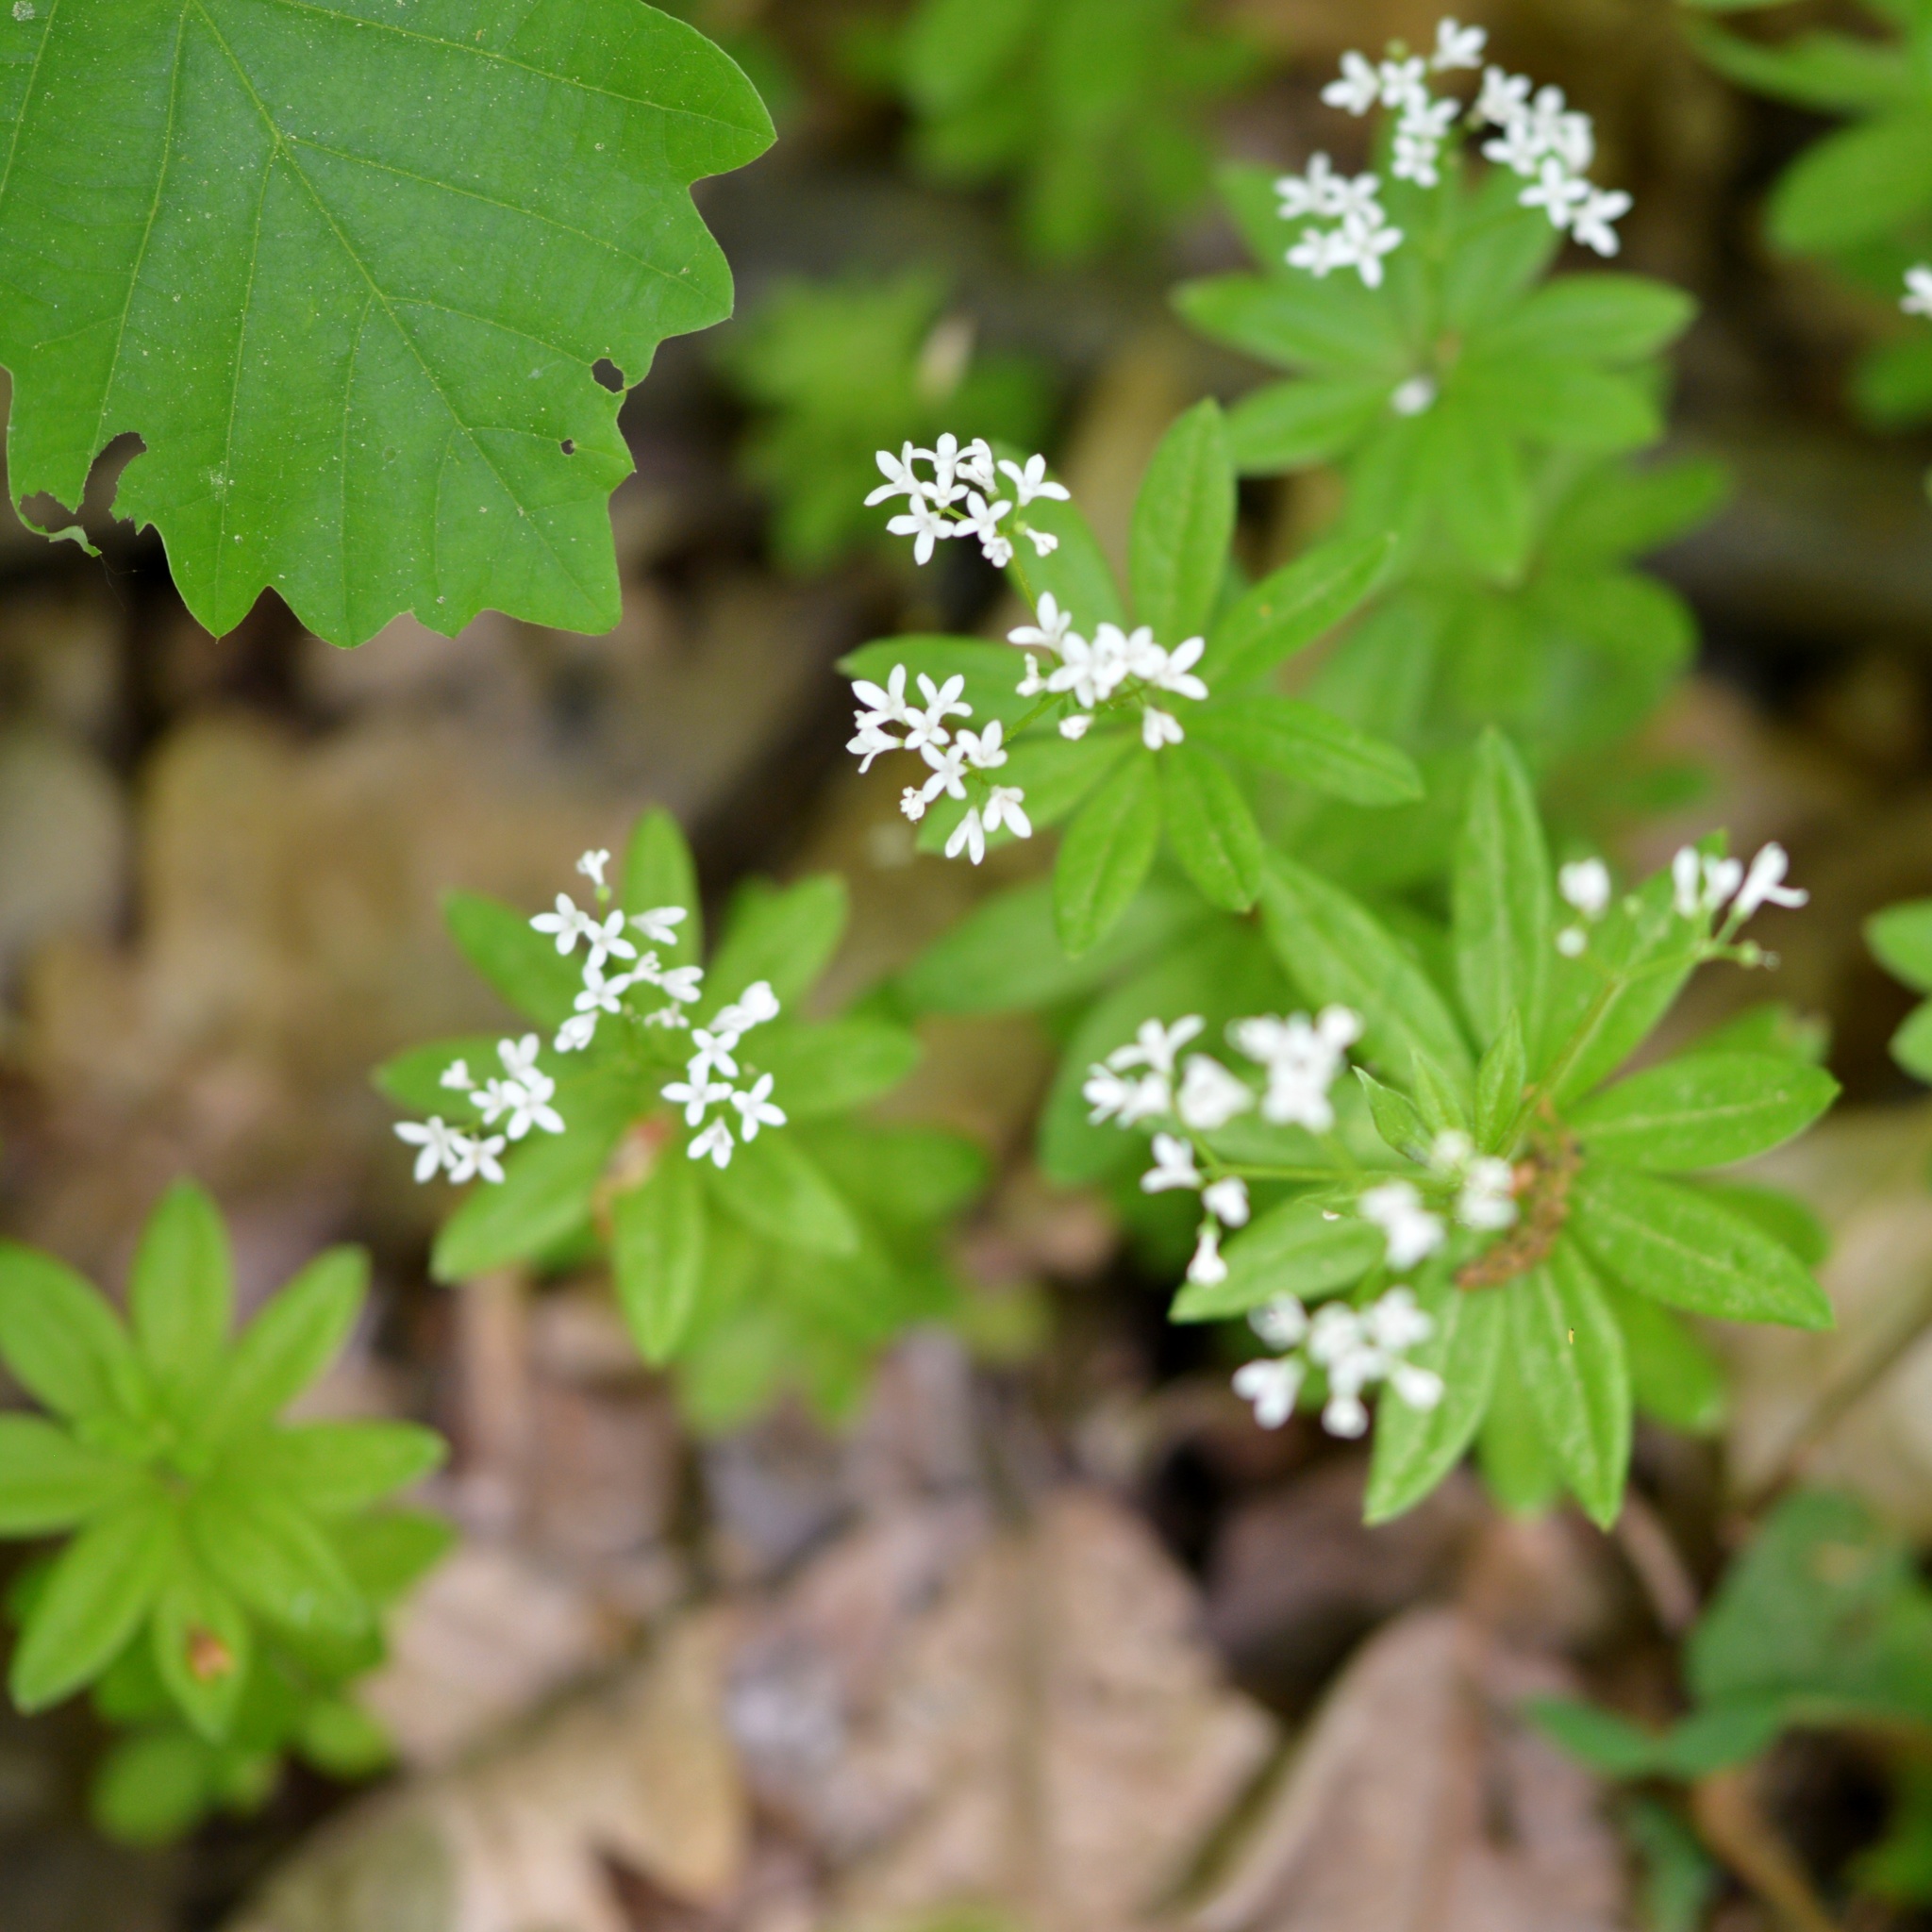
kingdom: Plantae
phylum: Tracheophyta
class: Magnoliopsida
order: Gentianales
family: Rubiaceae
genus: Galium
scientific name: Galium odoratum
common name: Sweet woodruff
